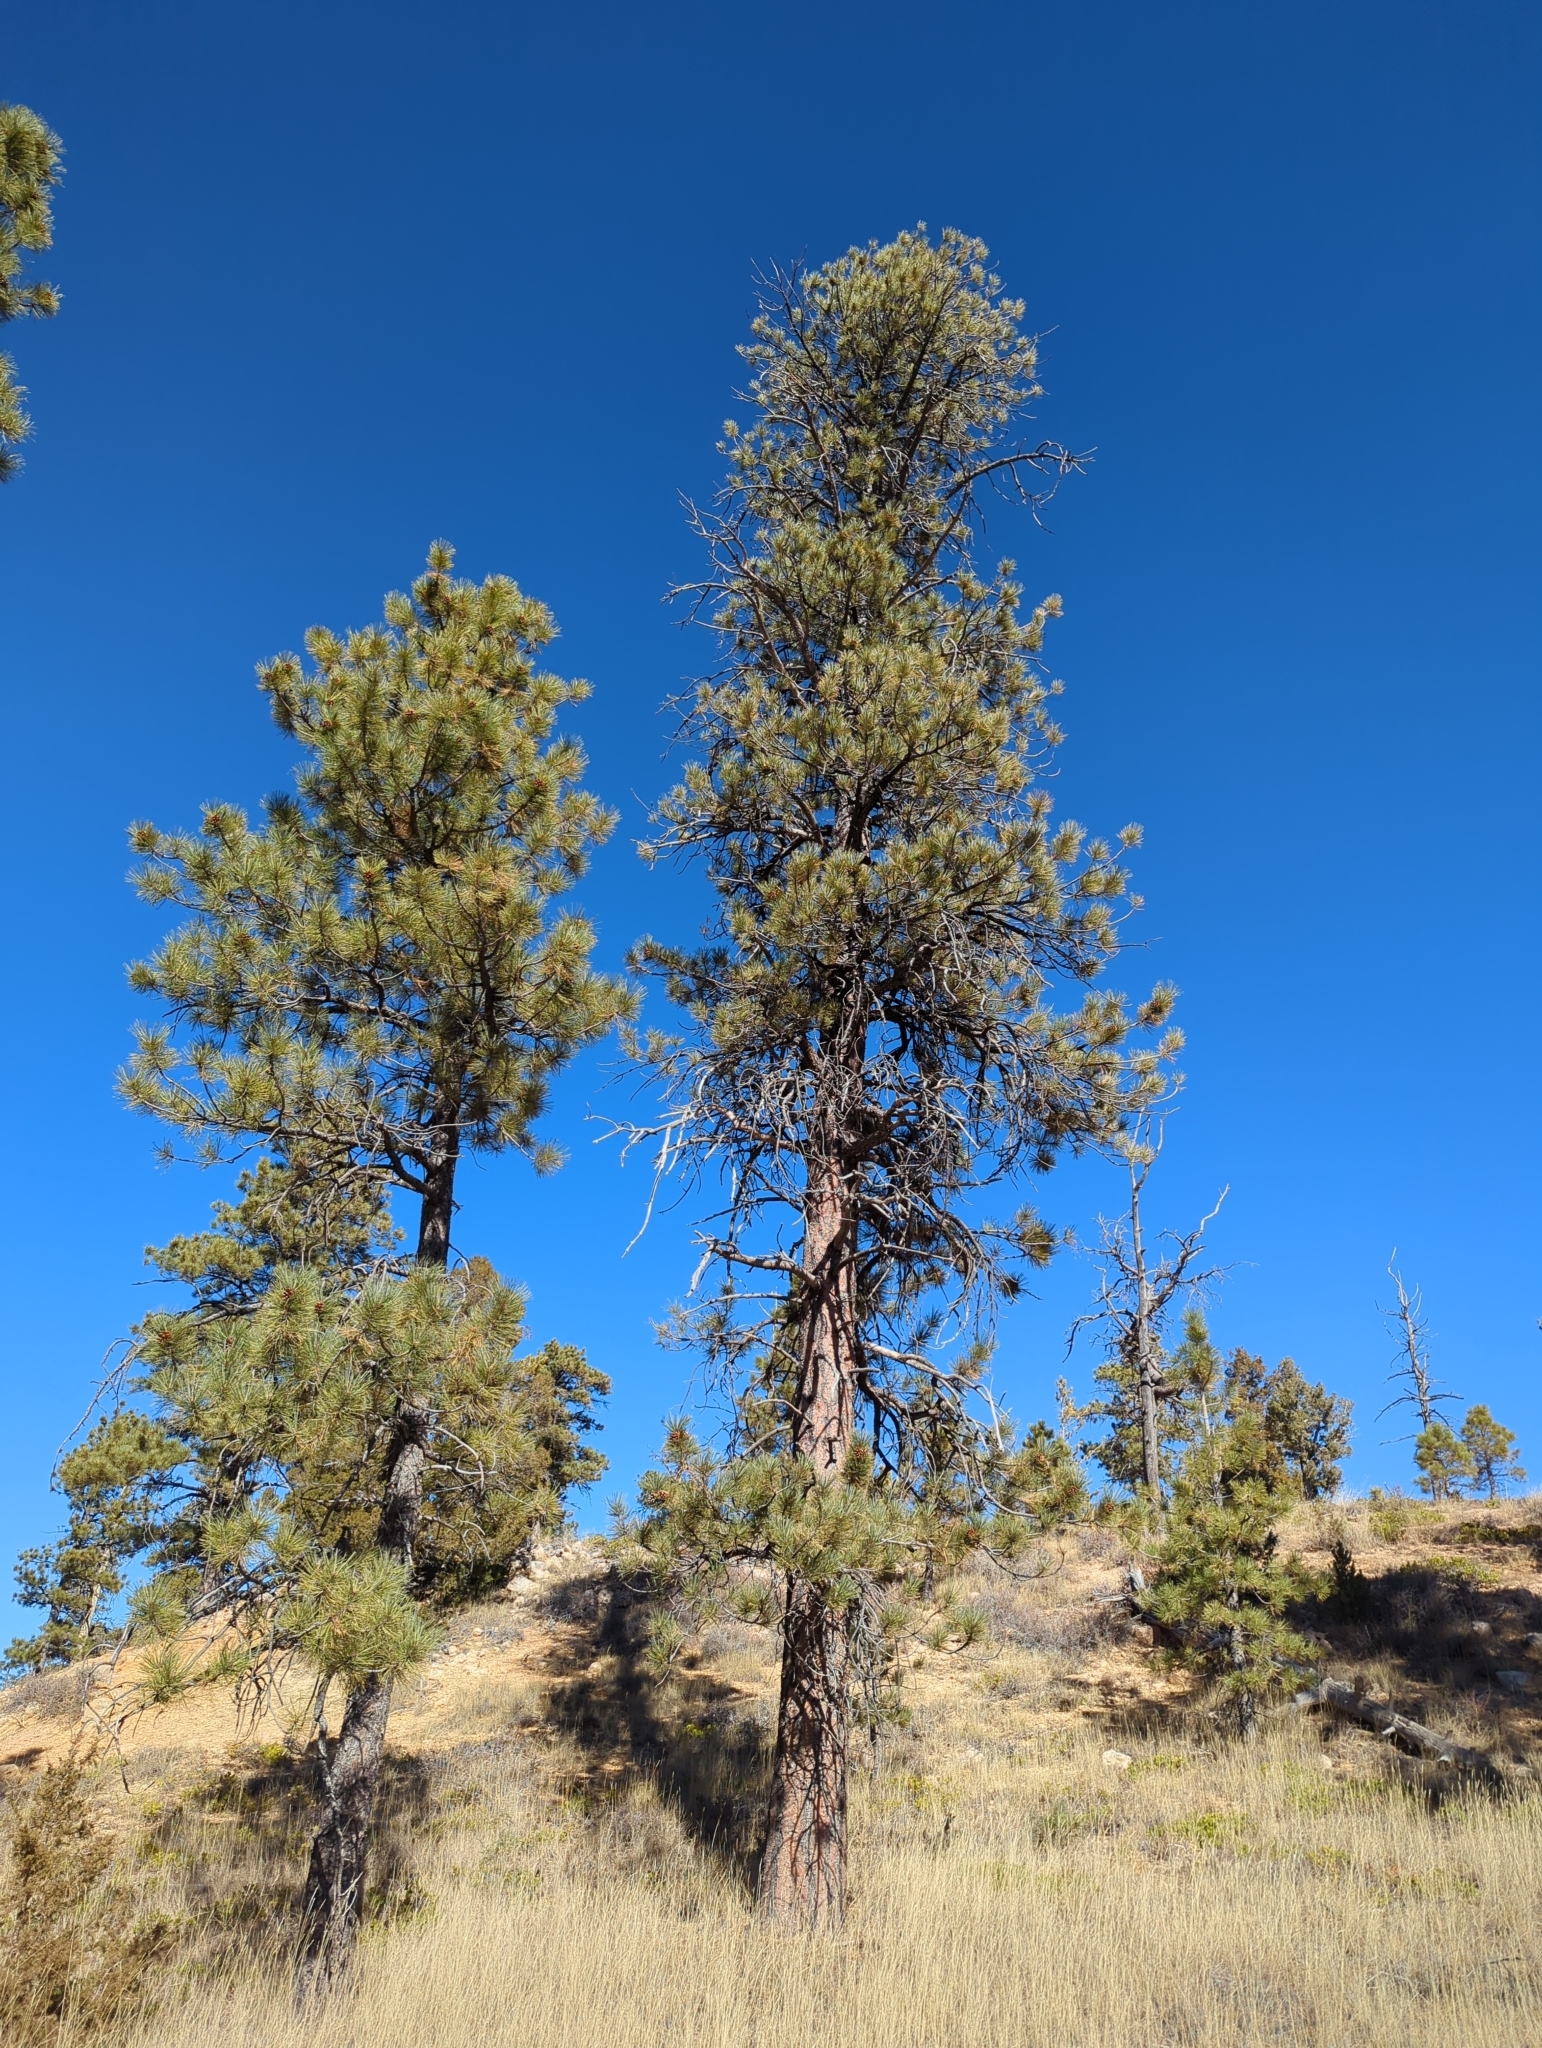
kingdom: Plantae
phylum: Tracheophyta
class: Pinopsida
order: Pinales
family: Pinaceae
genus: Pinus
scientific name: Pinus ponderosa
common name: Western yellow-pine
